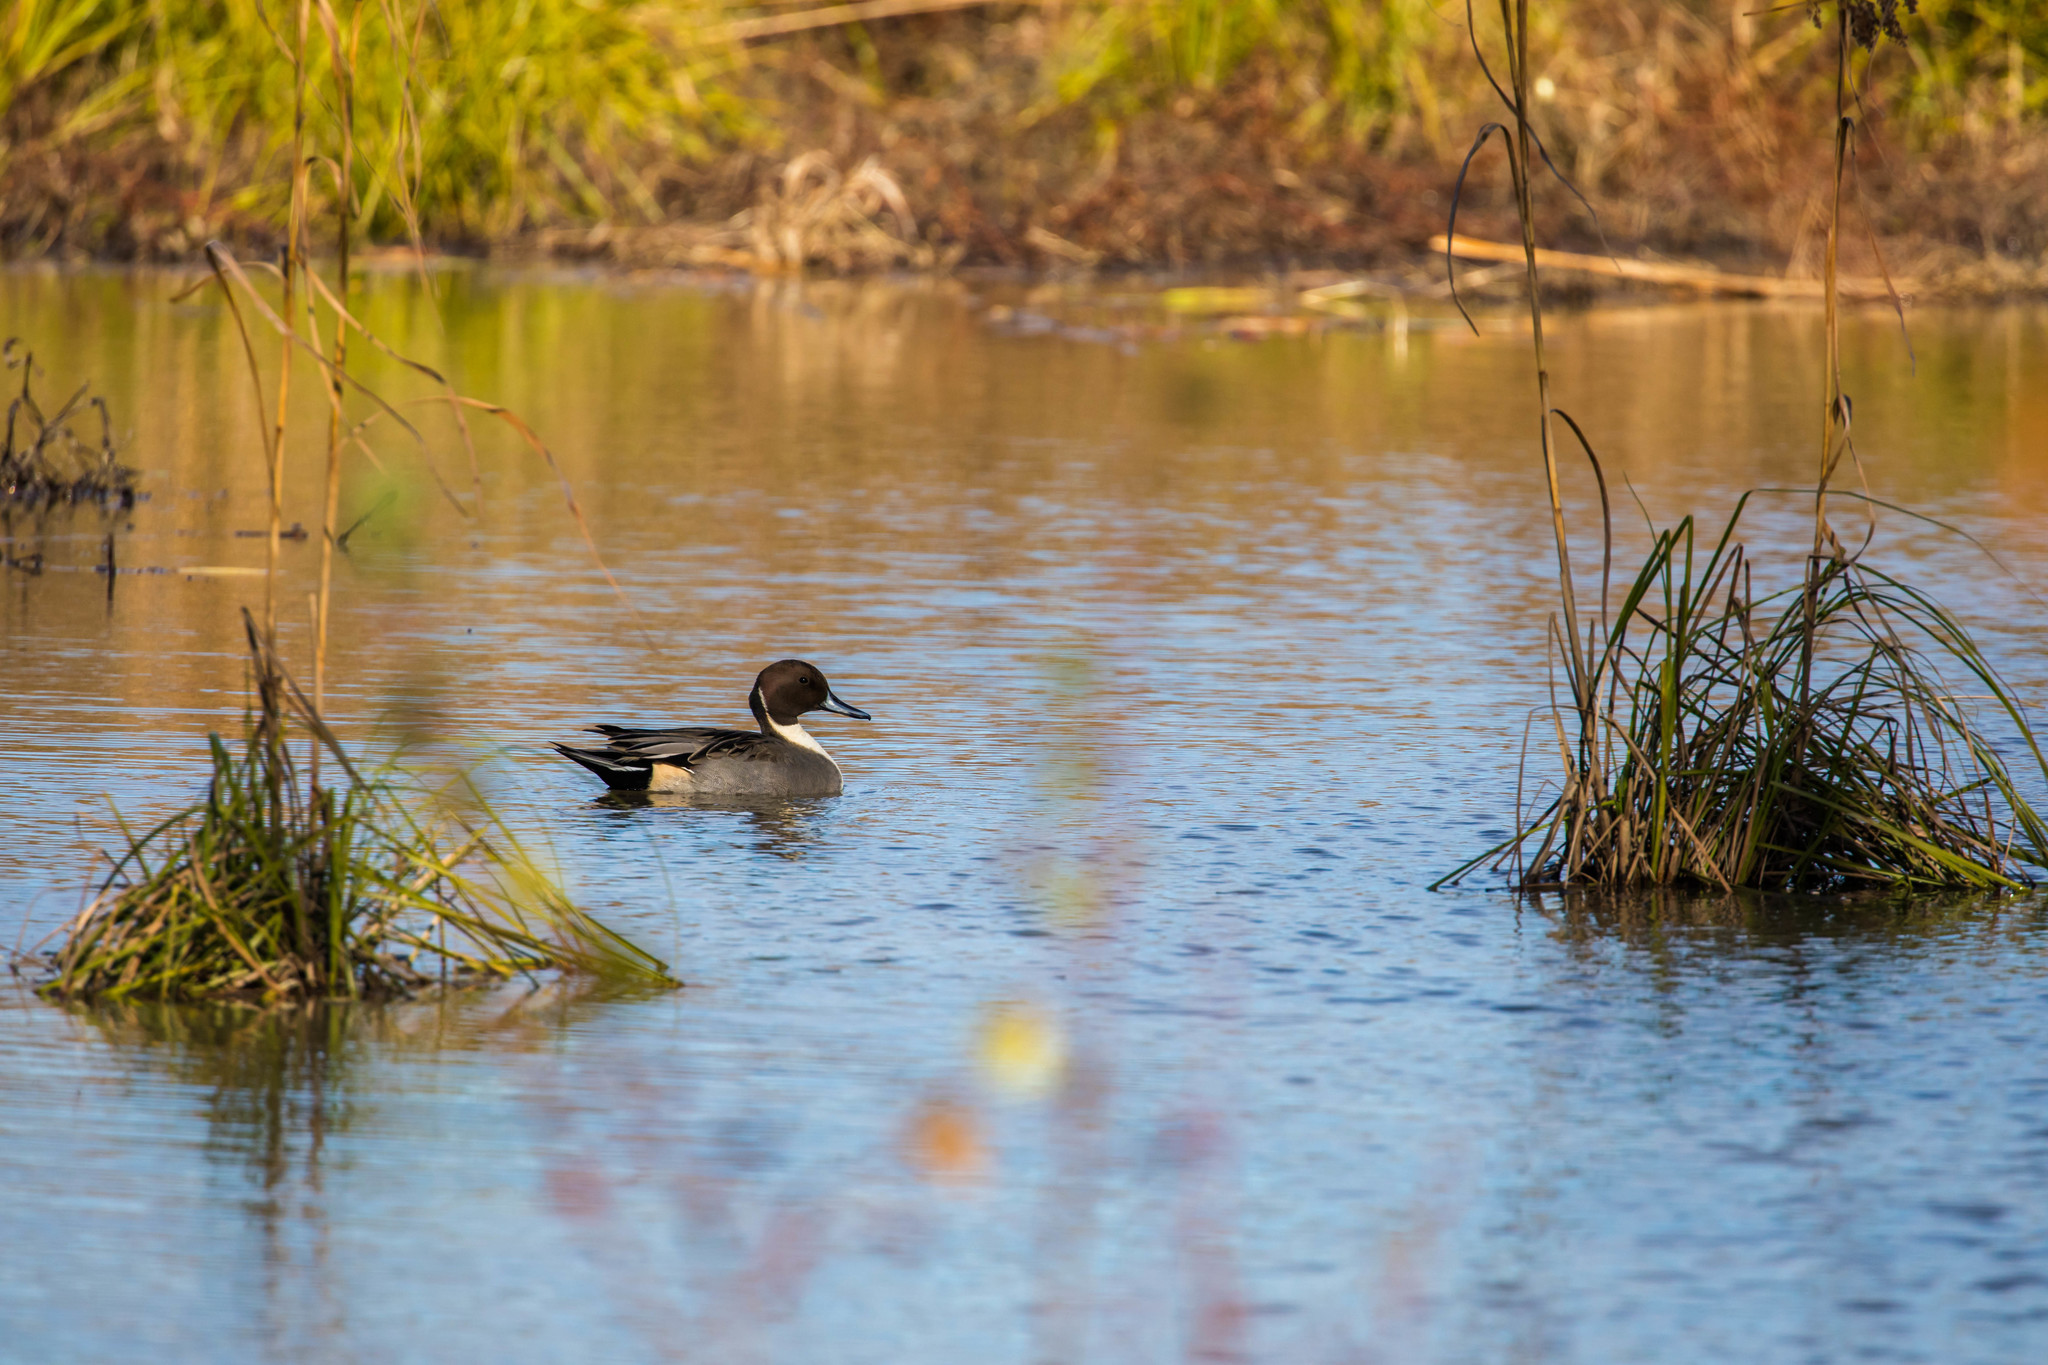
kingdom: Animalia
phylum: Chordata
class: Aves
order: Anseriformes
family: Anatidae
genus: Anas
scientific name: Anas acuta
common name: Northern pintail
